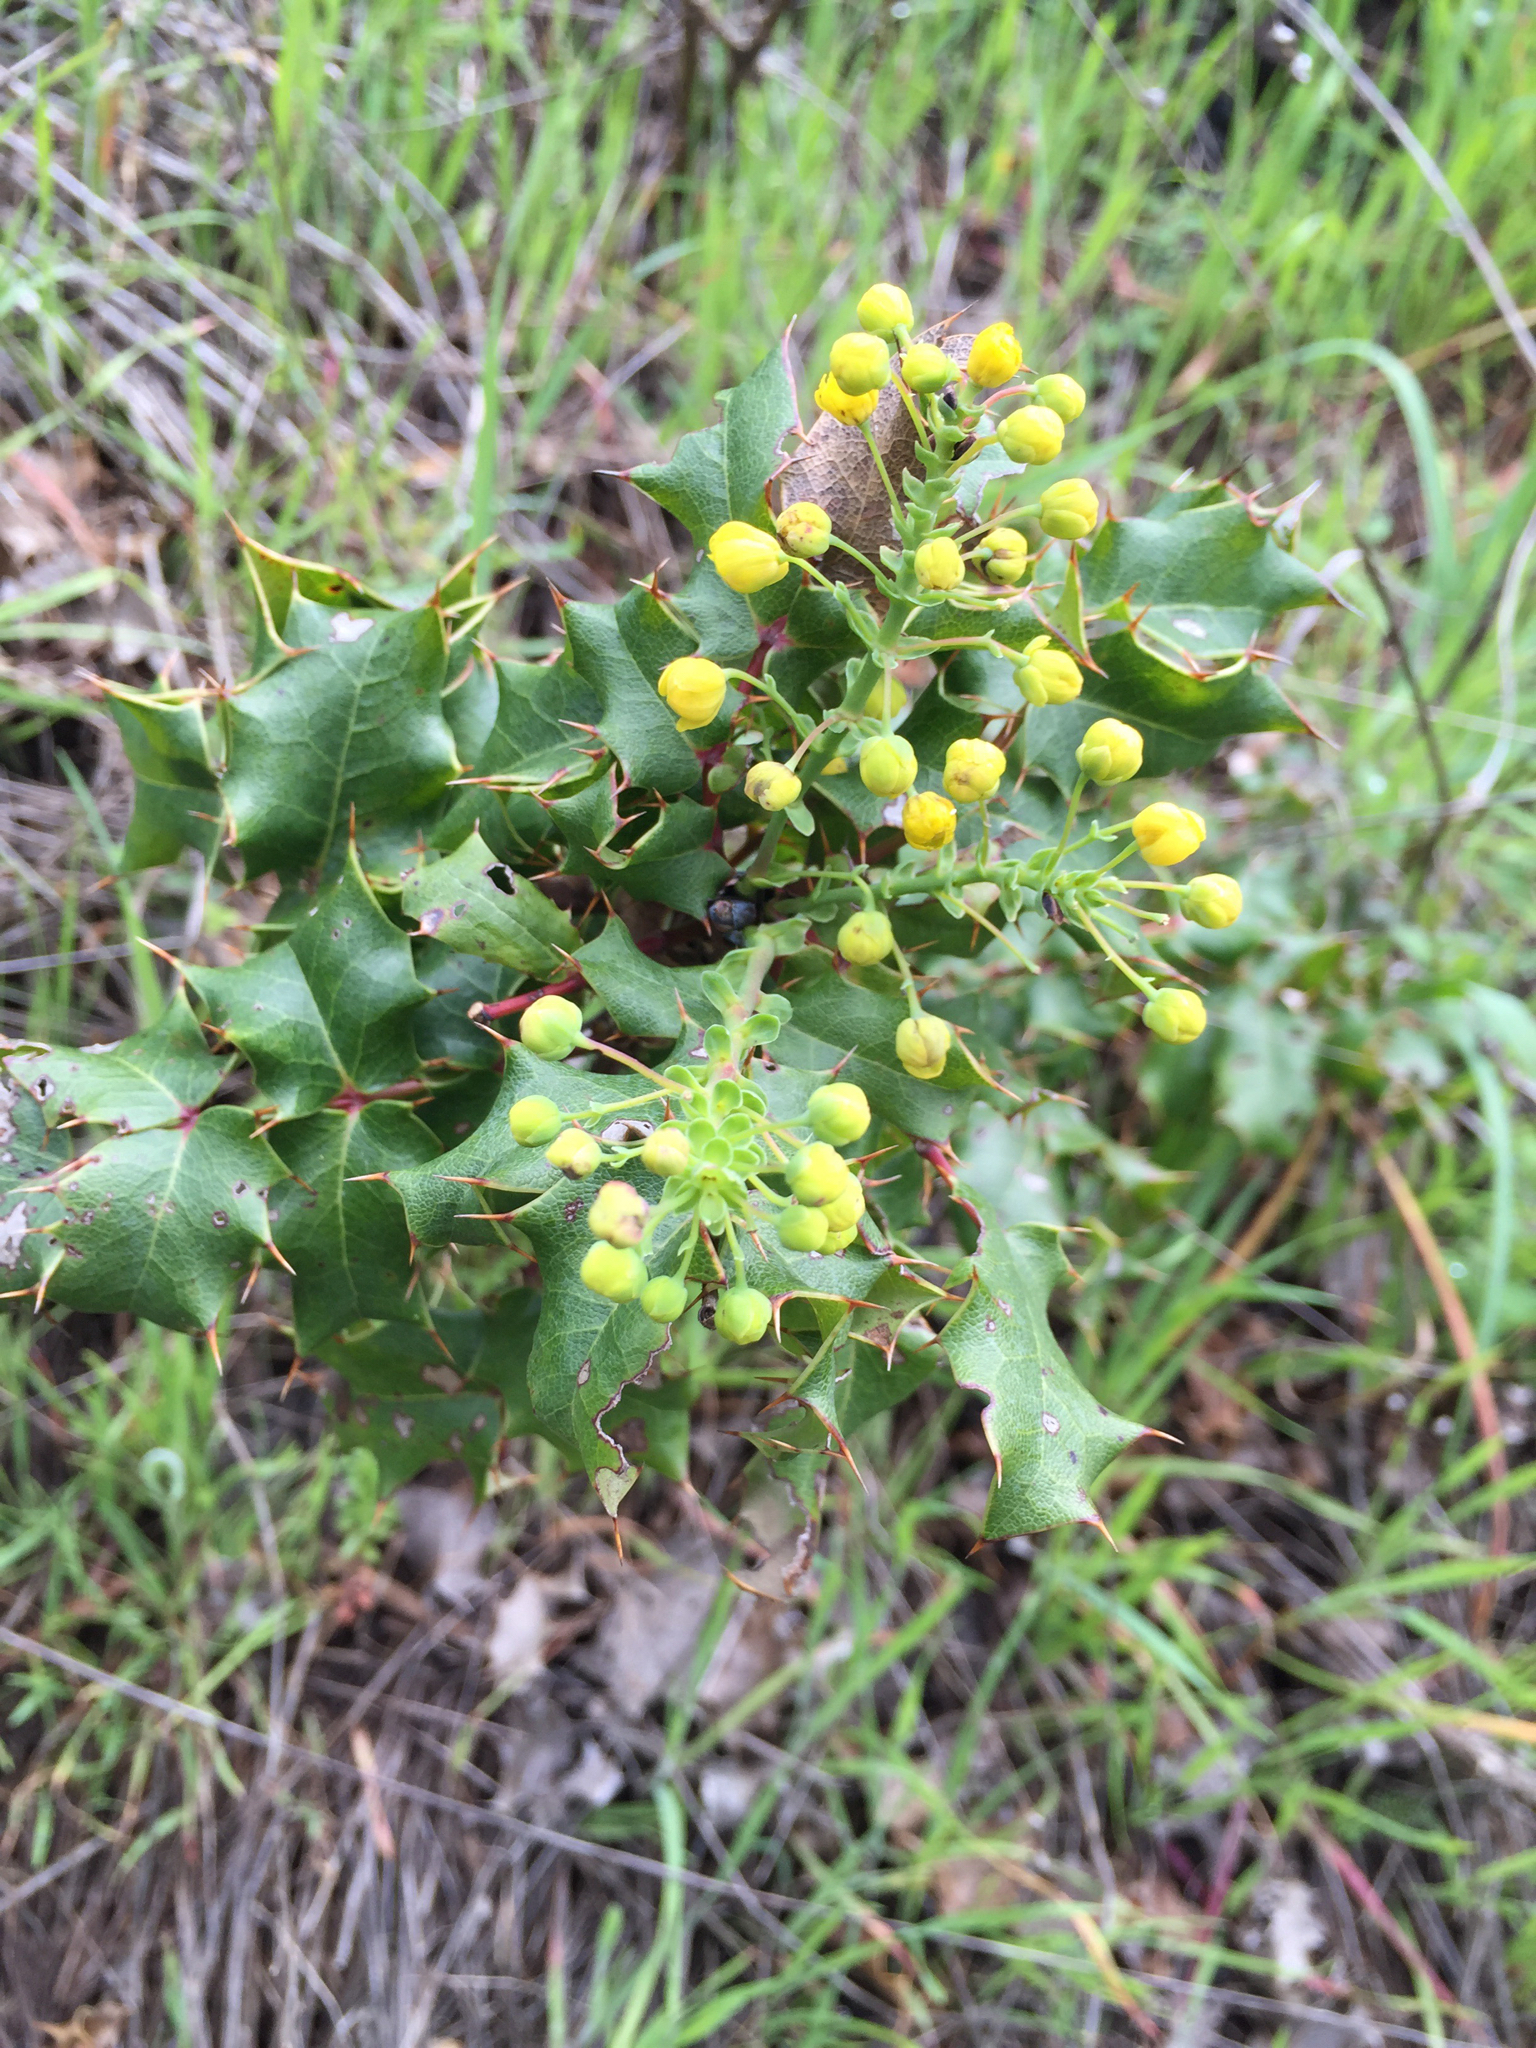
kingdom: Plantae
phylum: Tracheophyta
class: Magnoliopsida
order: Ranunculales
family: Berberidaceae
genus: Mahonia
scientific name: Mahonia
